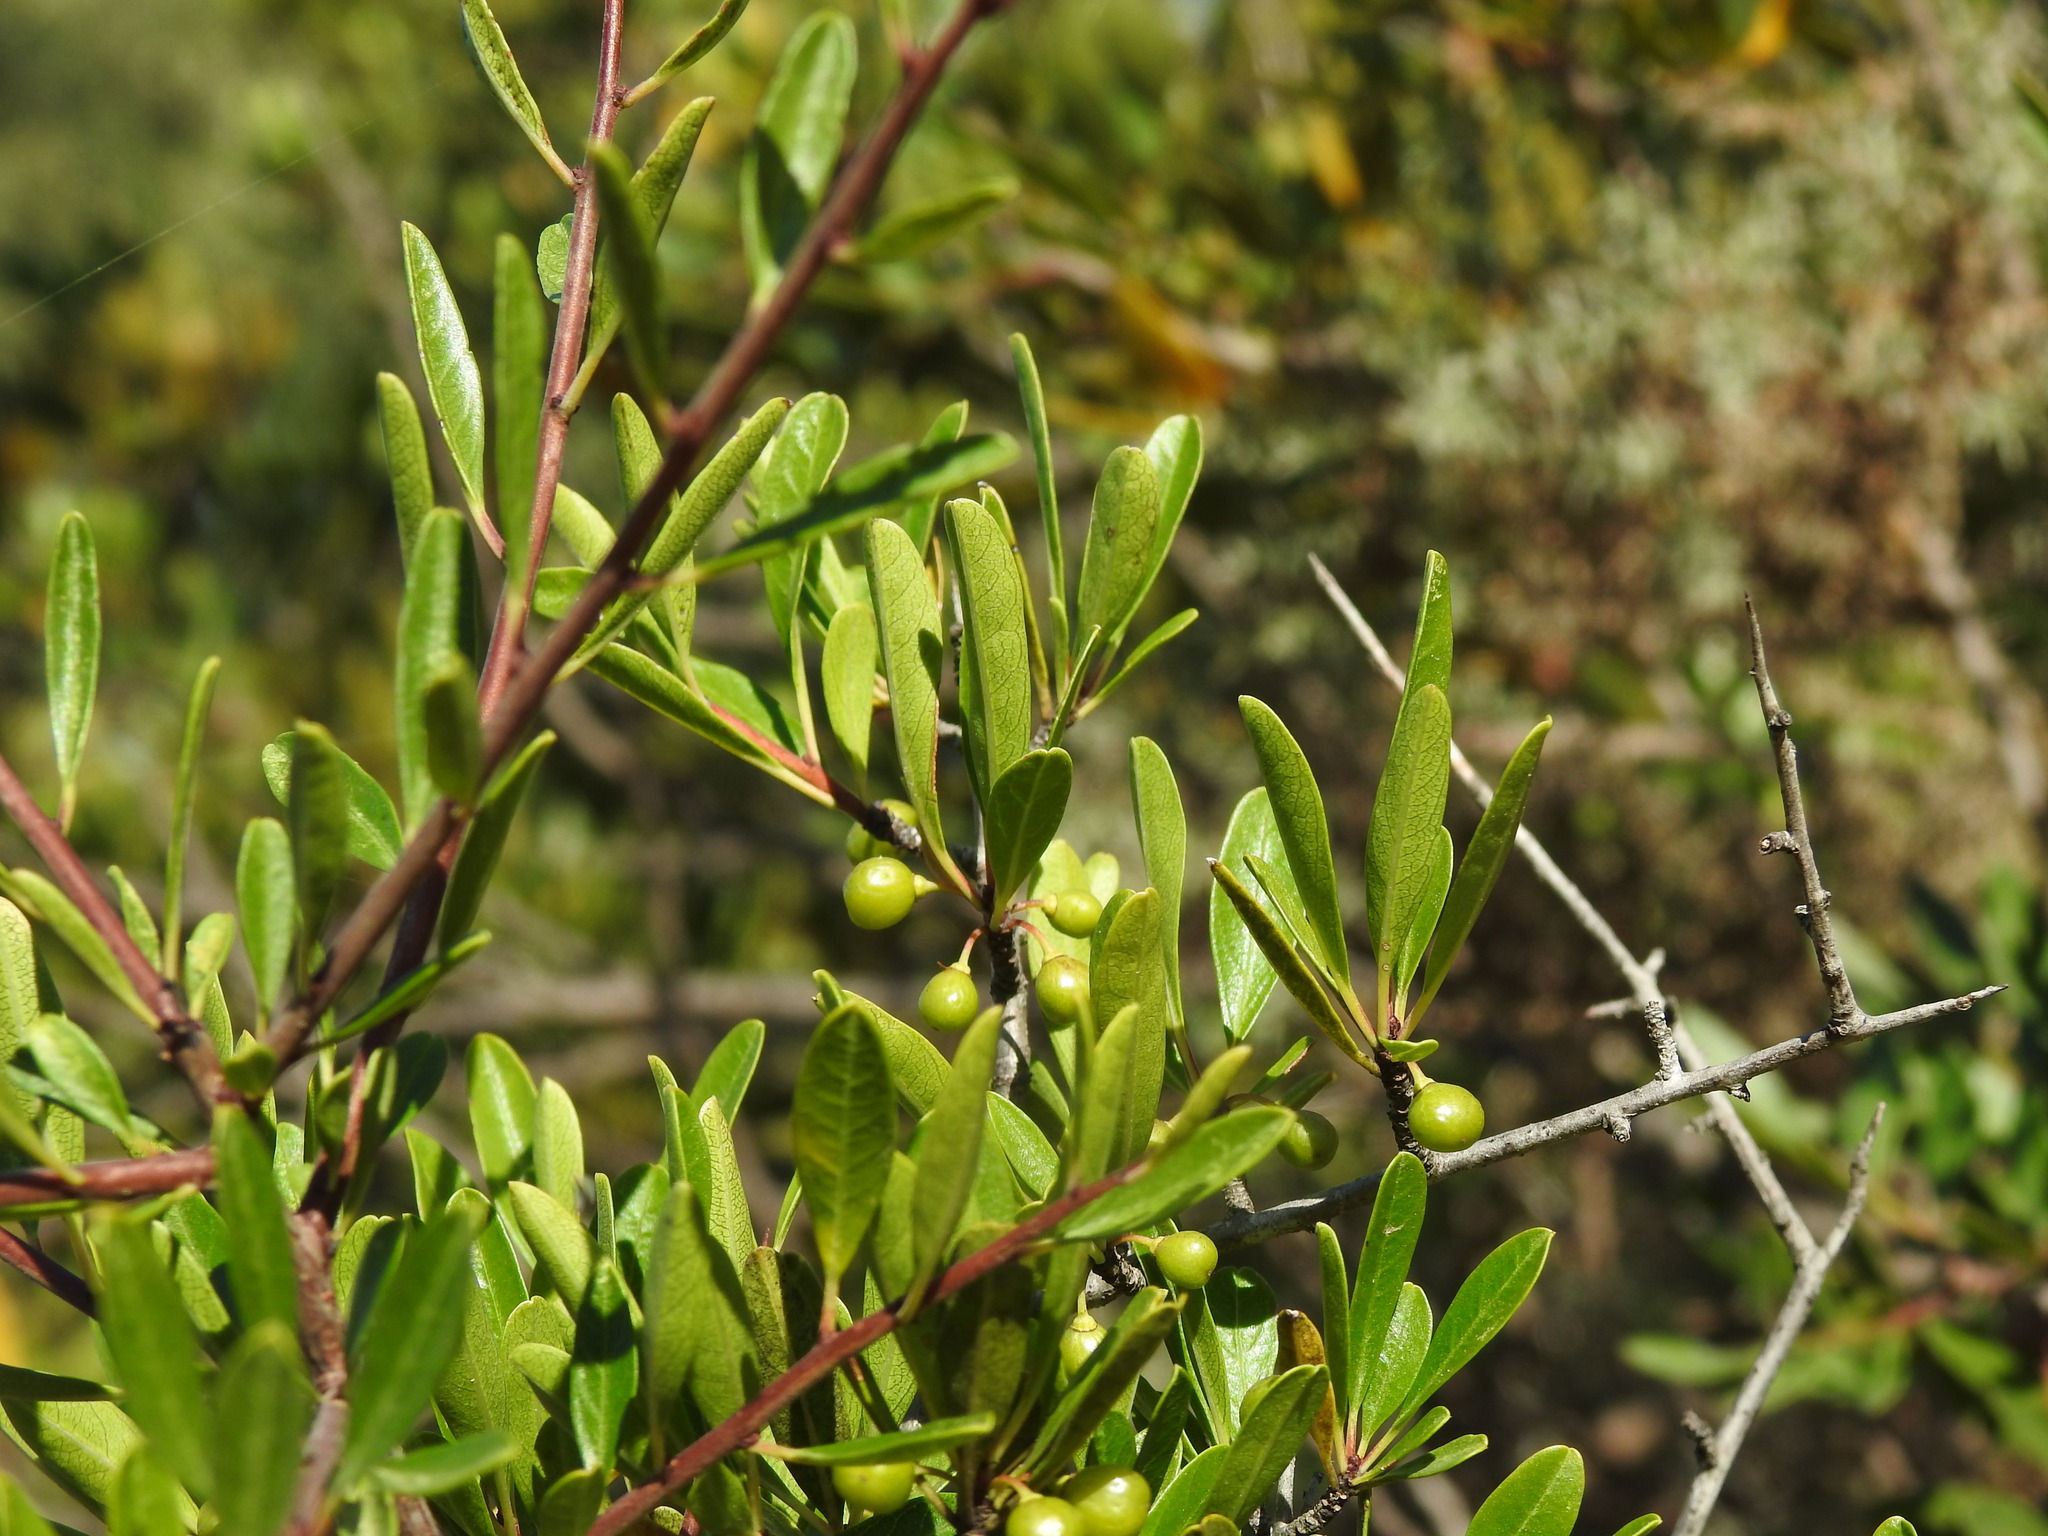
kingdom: Plantae
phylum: Tracheophyta
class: Magnoliopsida
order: Rosales
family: Rhamnaceae
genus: Rhamnus
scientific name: Rhamnus oleoides
